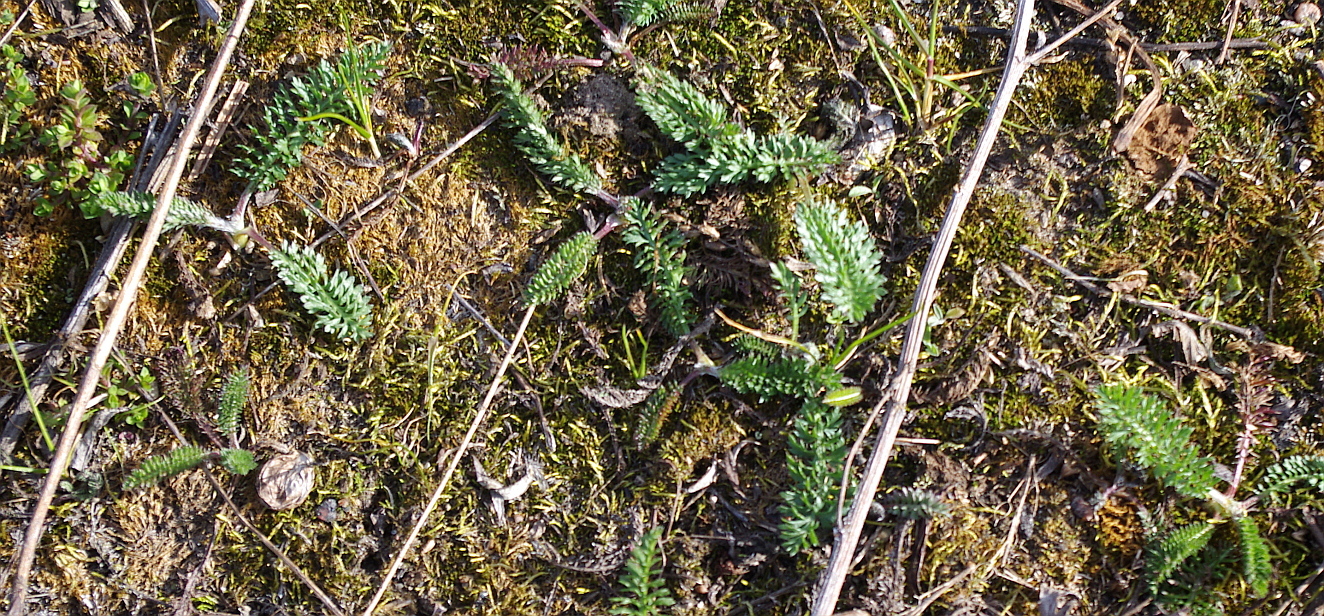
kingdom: Plantae
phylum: Tracheophyta
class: Magnoliopsida
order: Asterales
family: Asteraceae
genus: Achillea
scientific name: Achillea millefolium
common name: Yarrow
